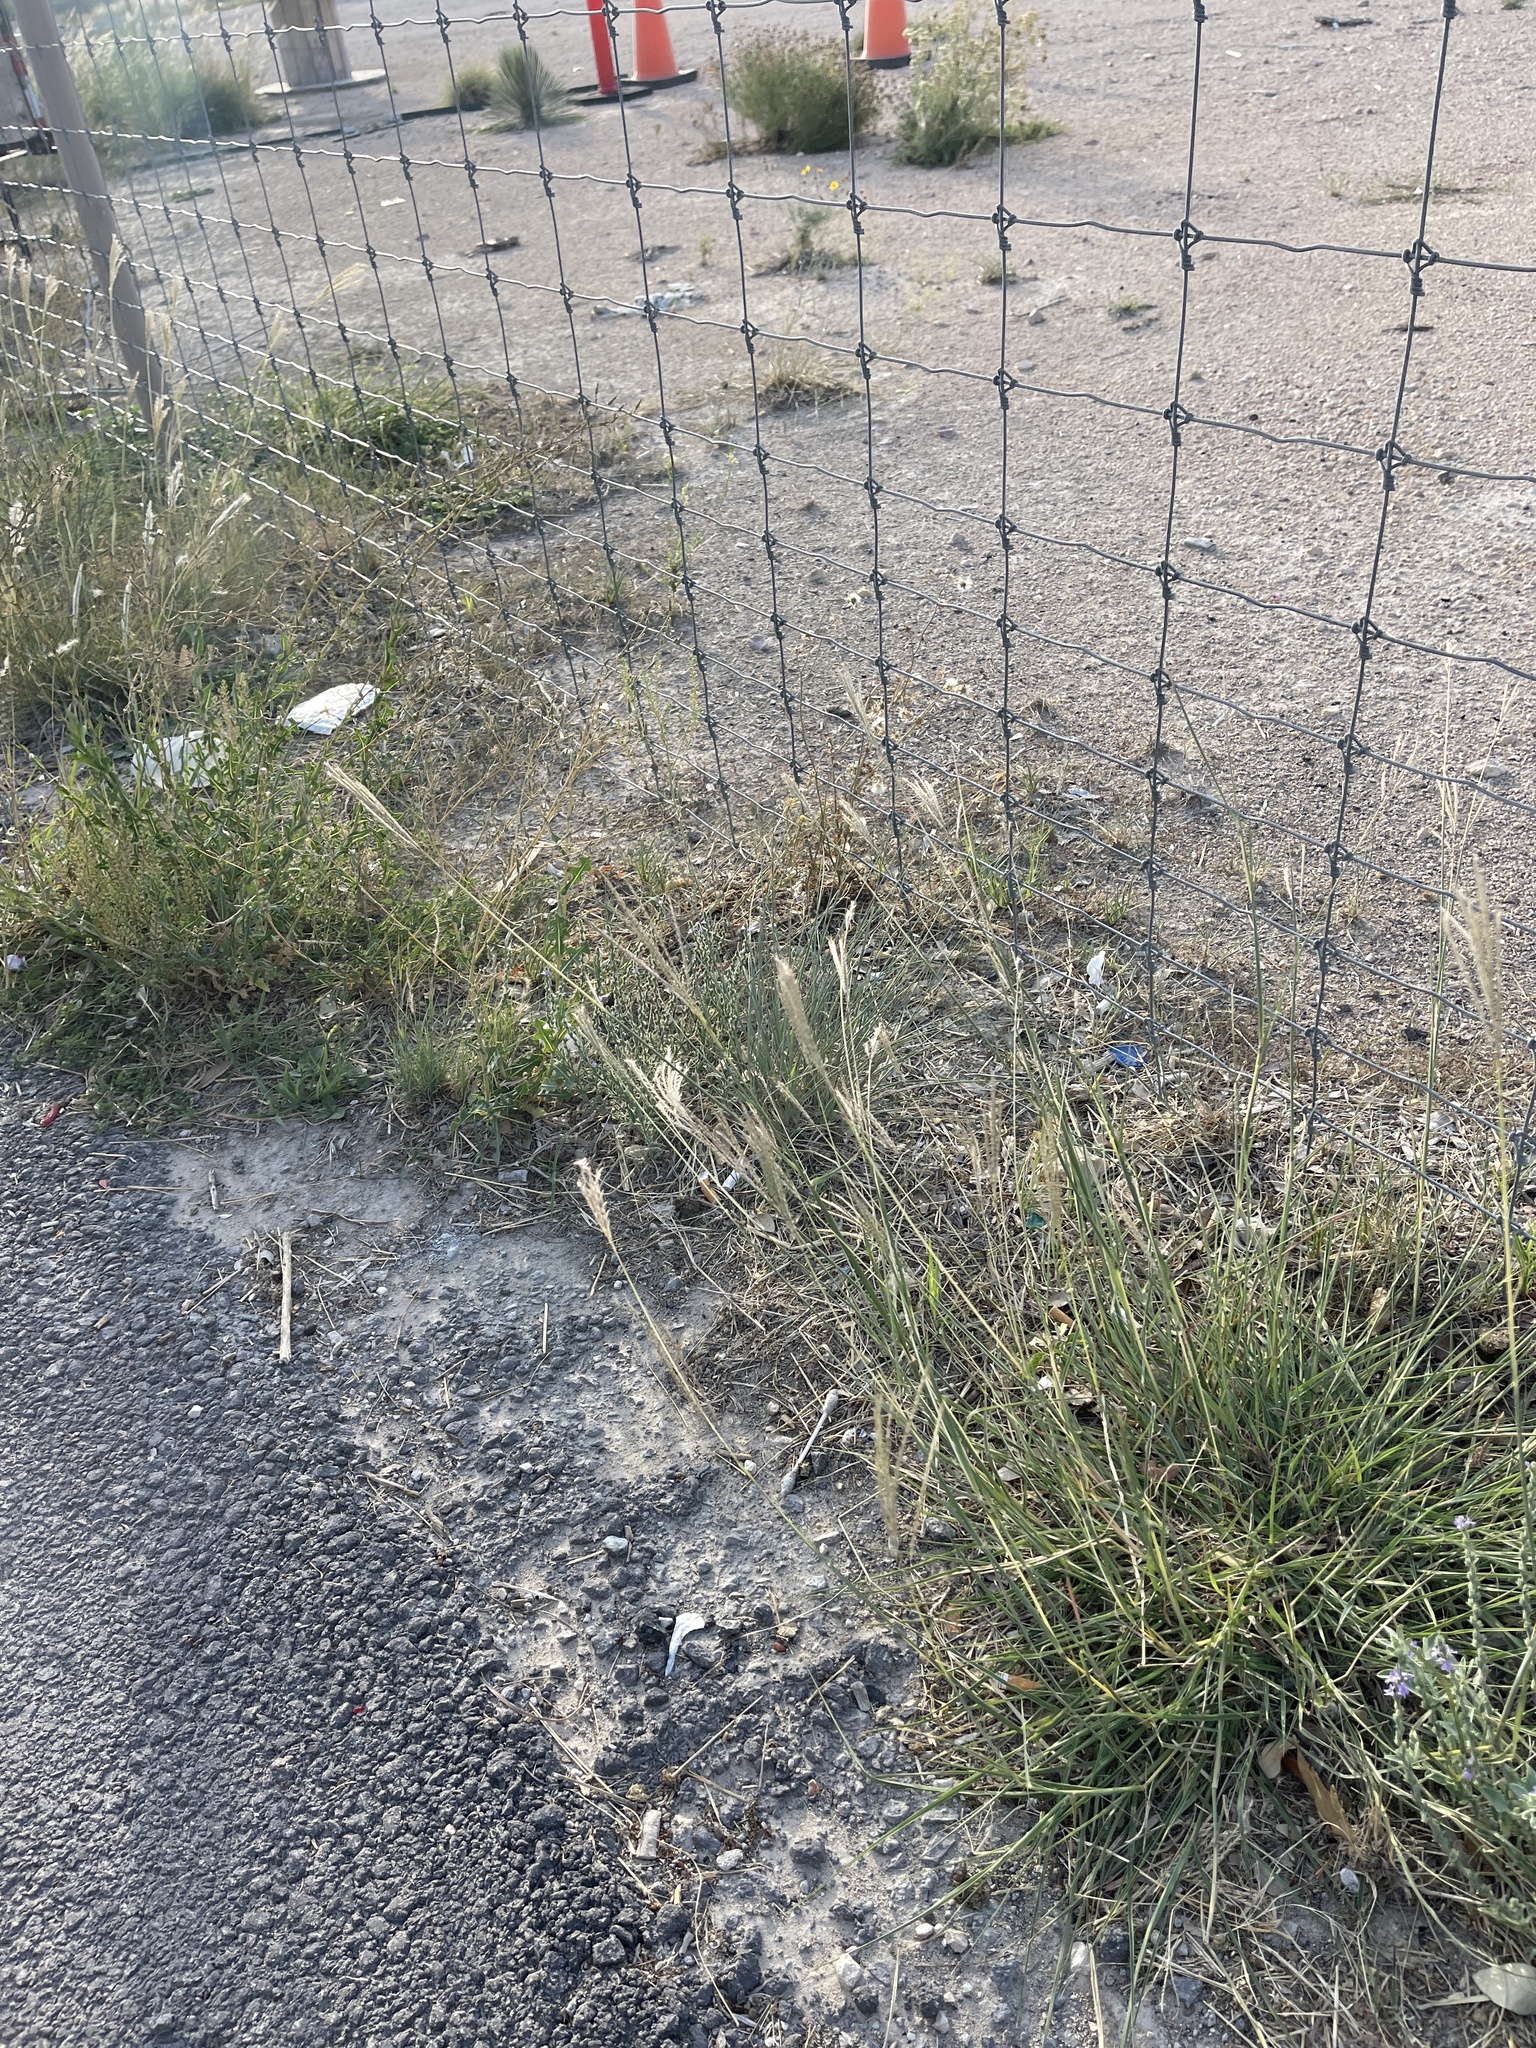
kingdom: Plantae
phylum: Tracheophyta
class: Liliopsida
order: Poales
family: Poaceae
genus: Bothriochloa
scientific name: Bothriochloa ischaemum
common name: Yellow bluestem
